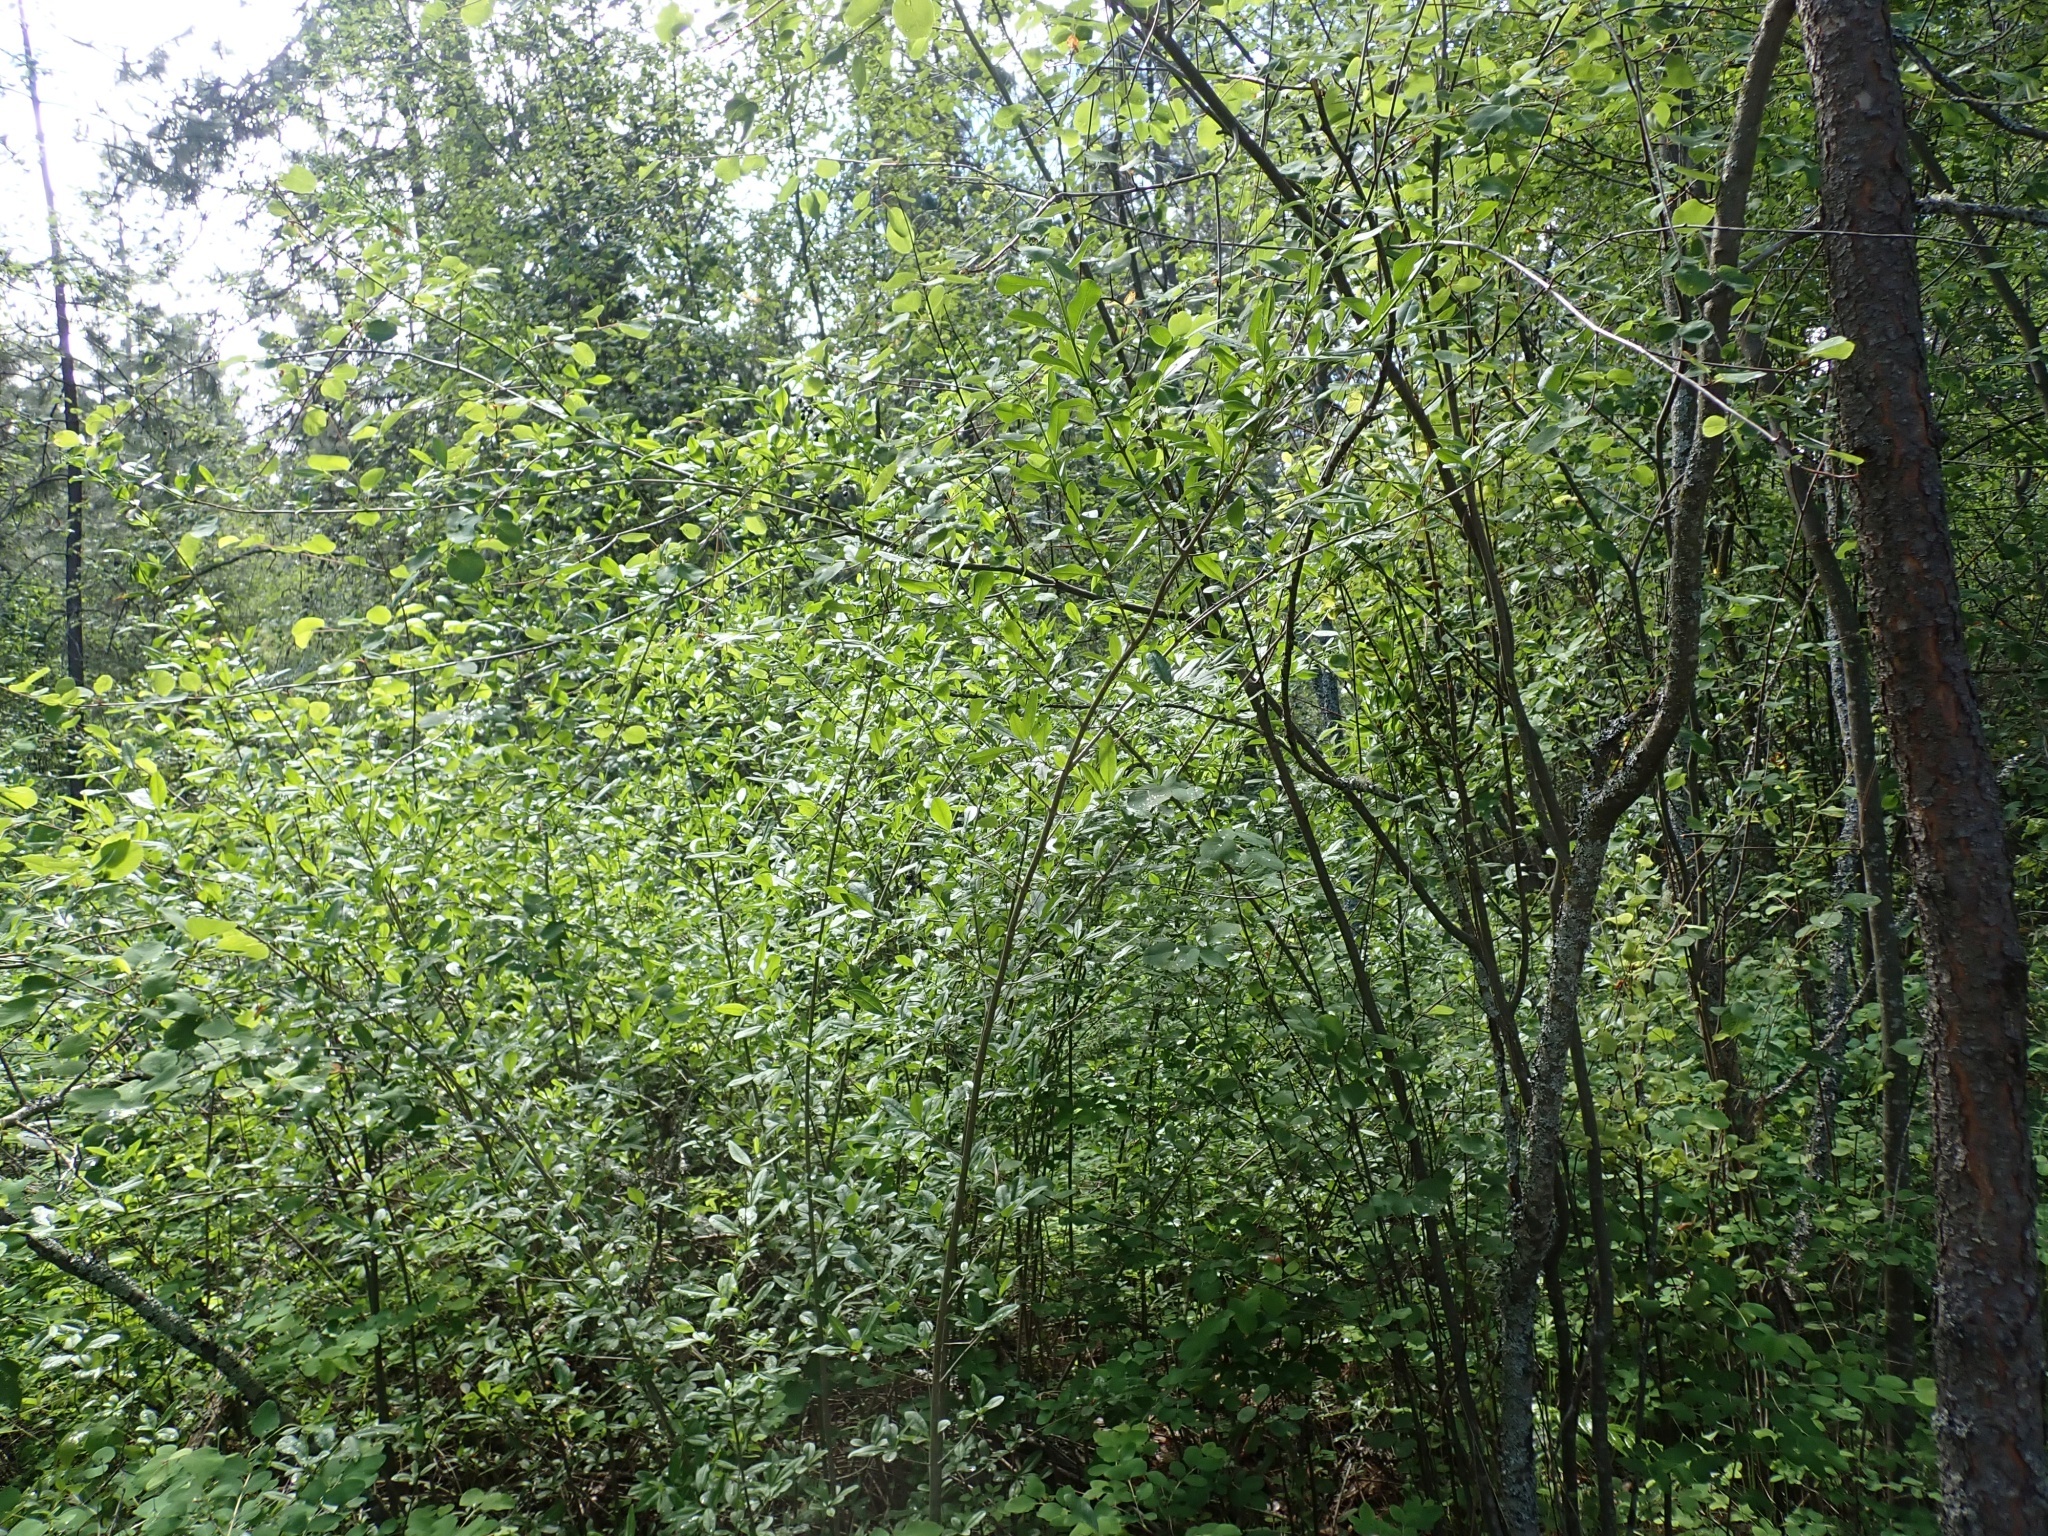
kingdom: Plantae
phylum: Tracheophyta
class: Magnoliopsida
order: Lamiales
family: Oleaceae
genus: Ligustrum
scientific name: Ligustrum vulgare
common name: Wild privet
